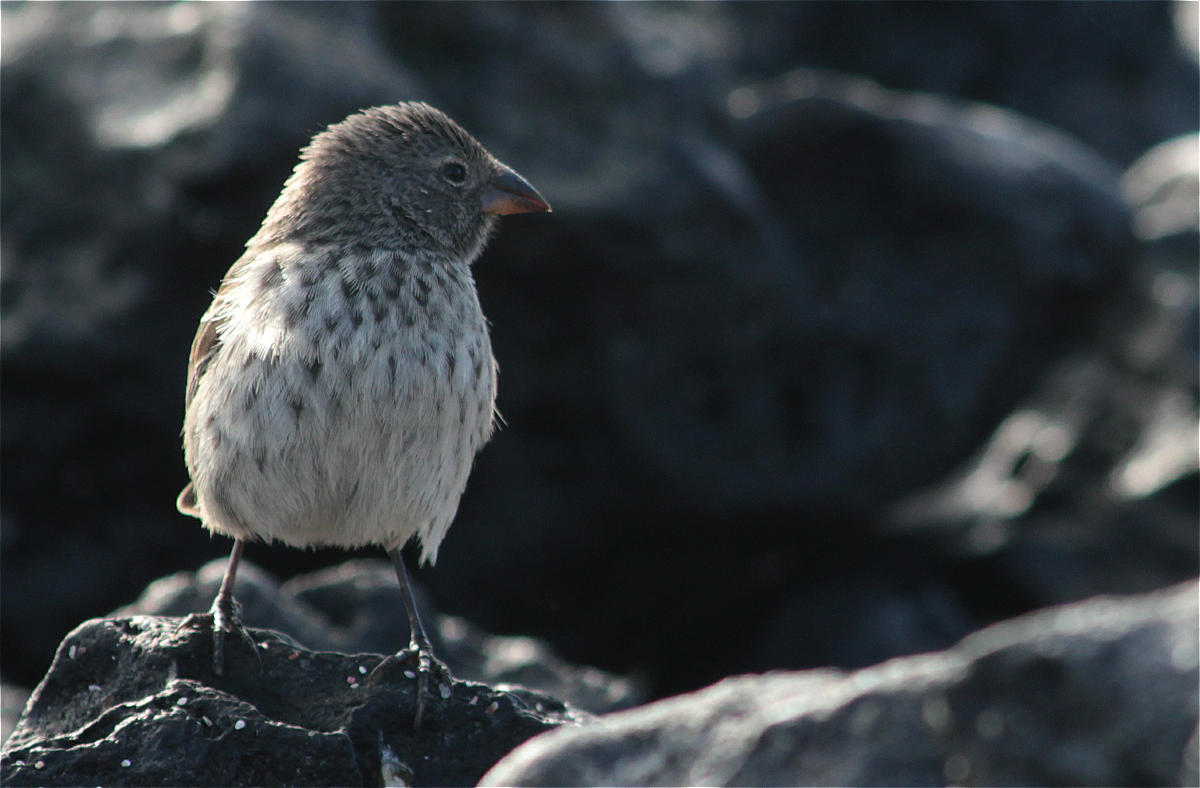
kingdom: Animalia
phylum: Chordata
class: Aves
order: Passeriformes
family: Thraupidae
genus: Geospiza
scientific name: Geospiza fuliginosa
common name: Small ground finch
